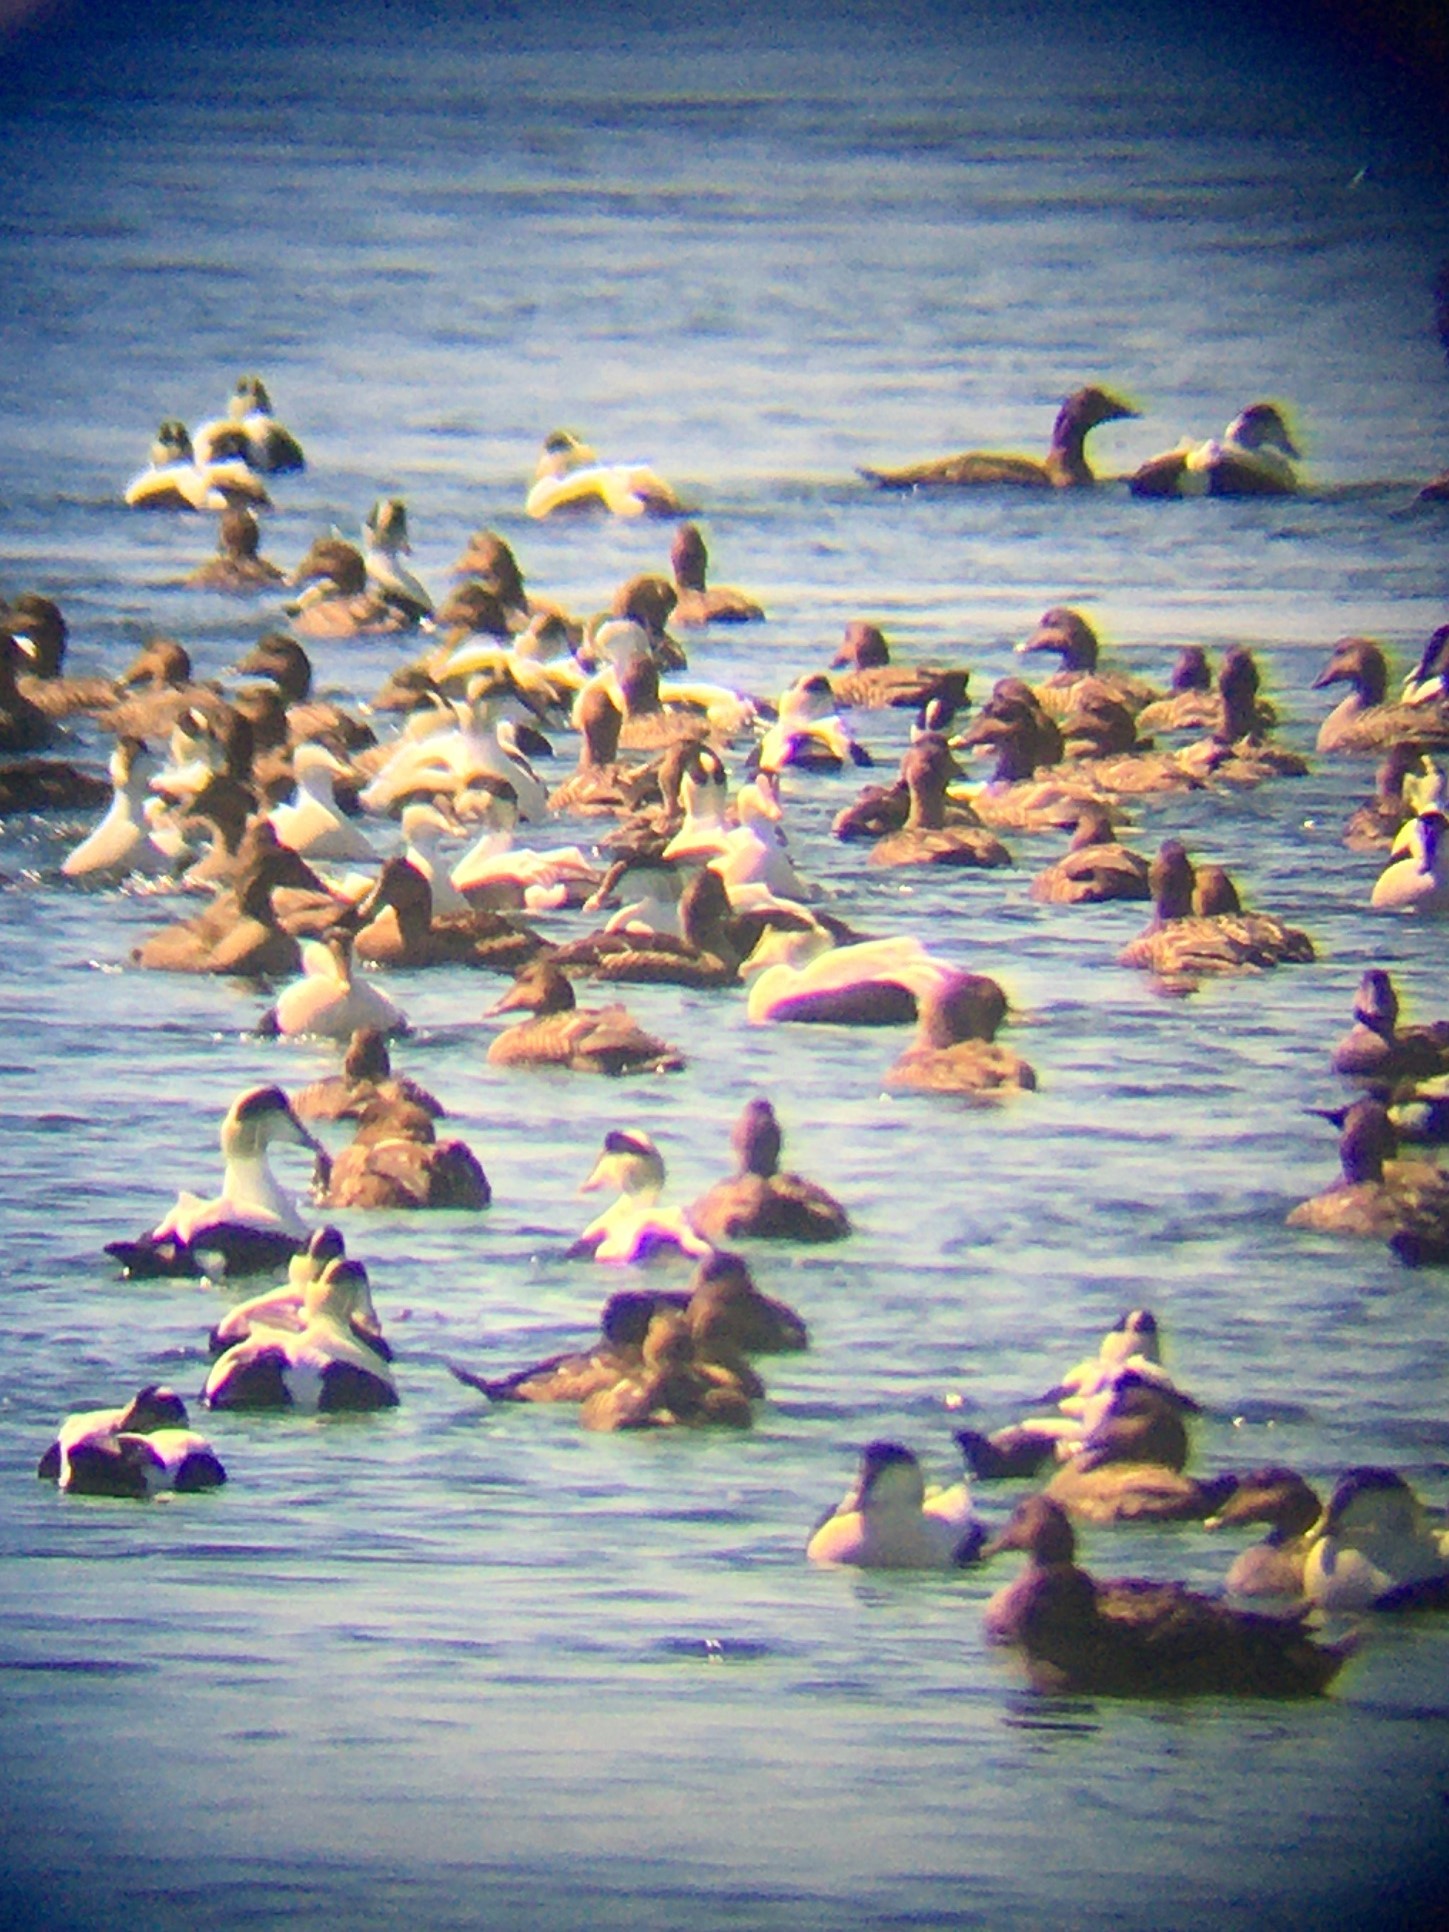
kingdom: Animalia
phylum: Chordata
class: Aves
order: Anseriformes
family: Anatidae
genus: Somateria
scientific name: Somateria mollissima
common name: Common eider
